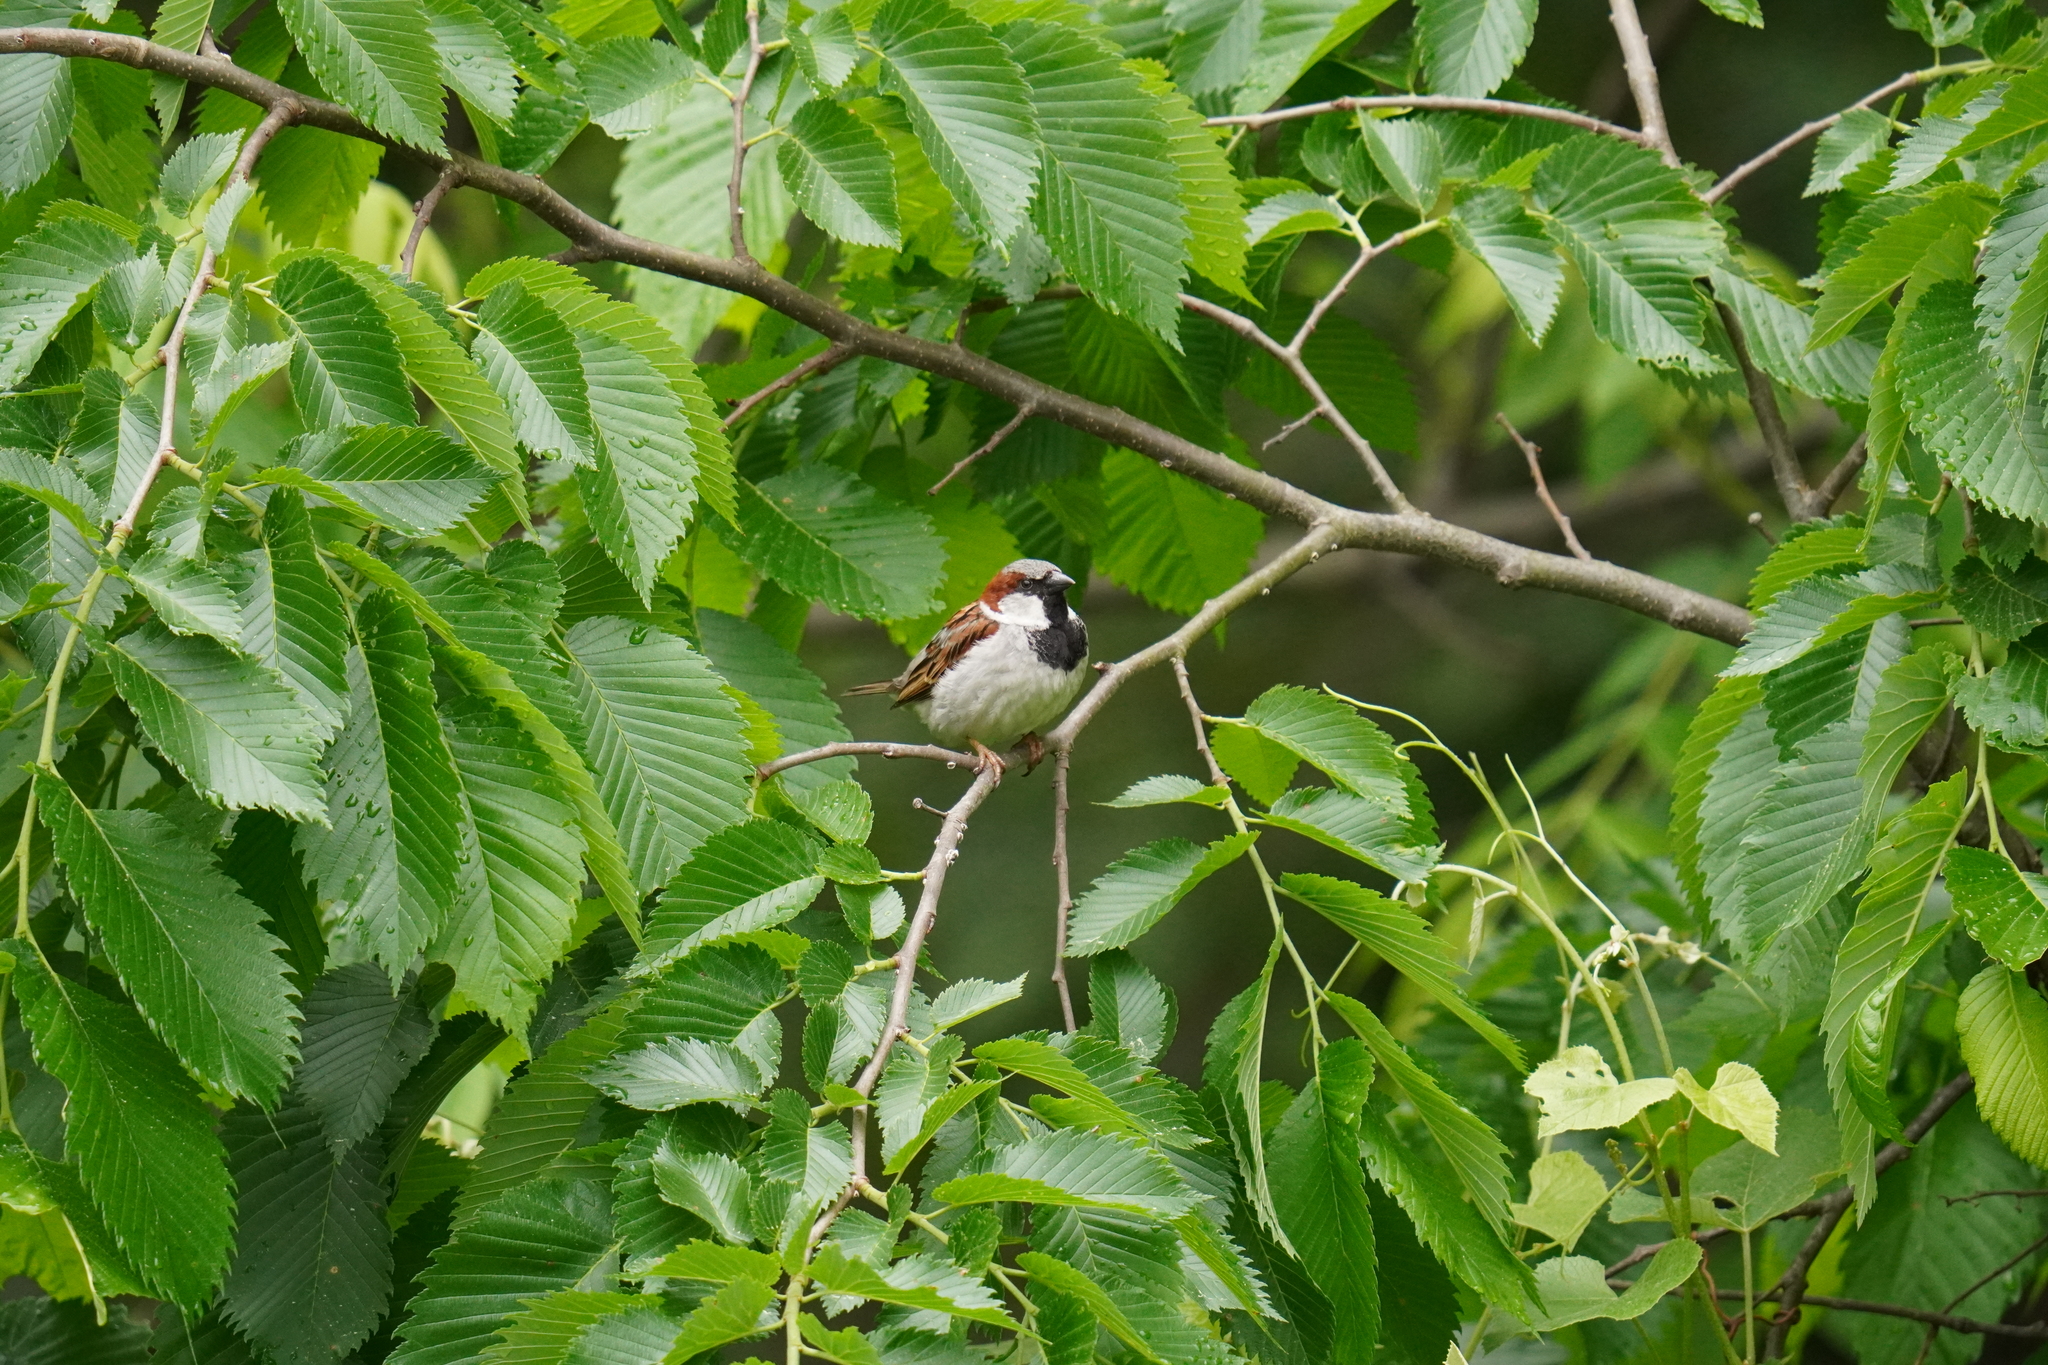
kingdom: Animalia
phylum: Chordata
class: Aves
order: Passeriformes
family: Passeridae
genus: Passer
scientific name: Passer domesticus
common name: House sparrow
